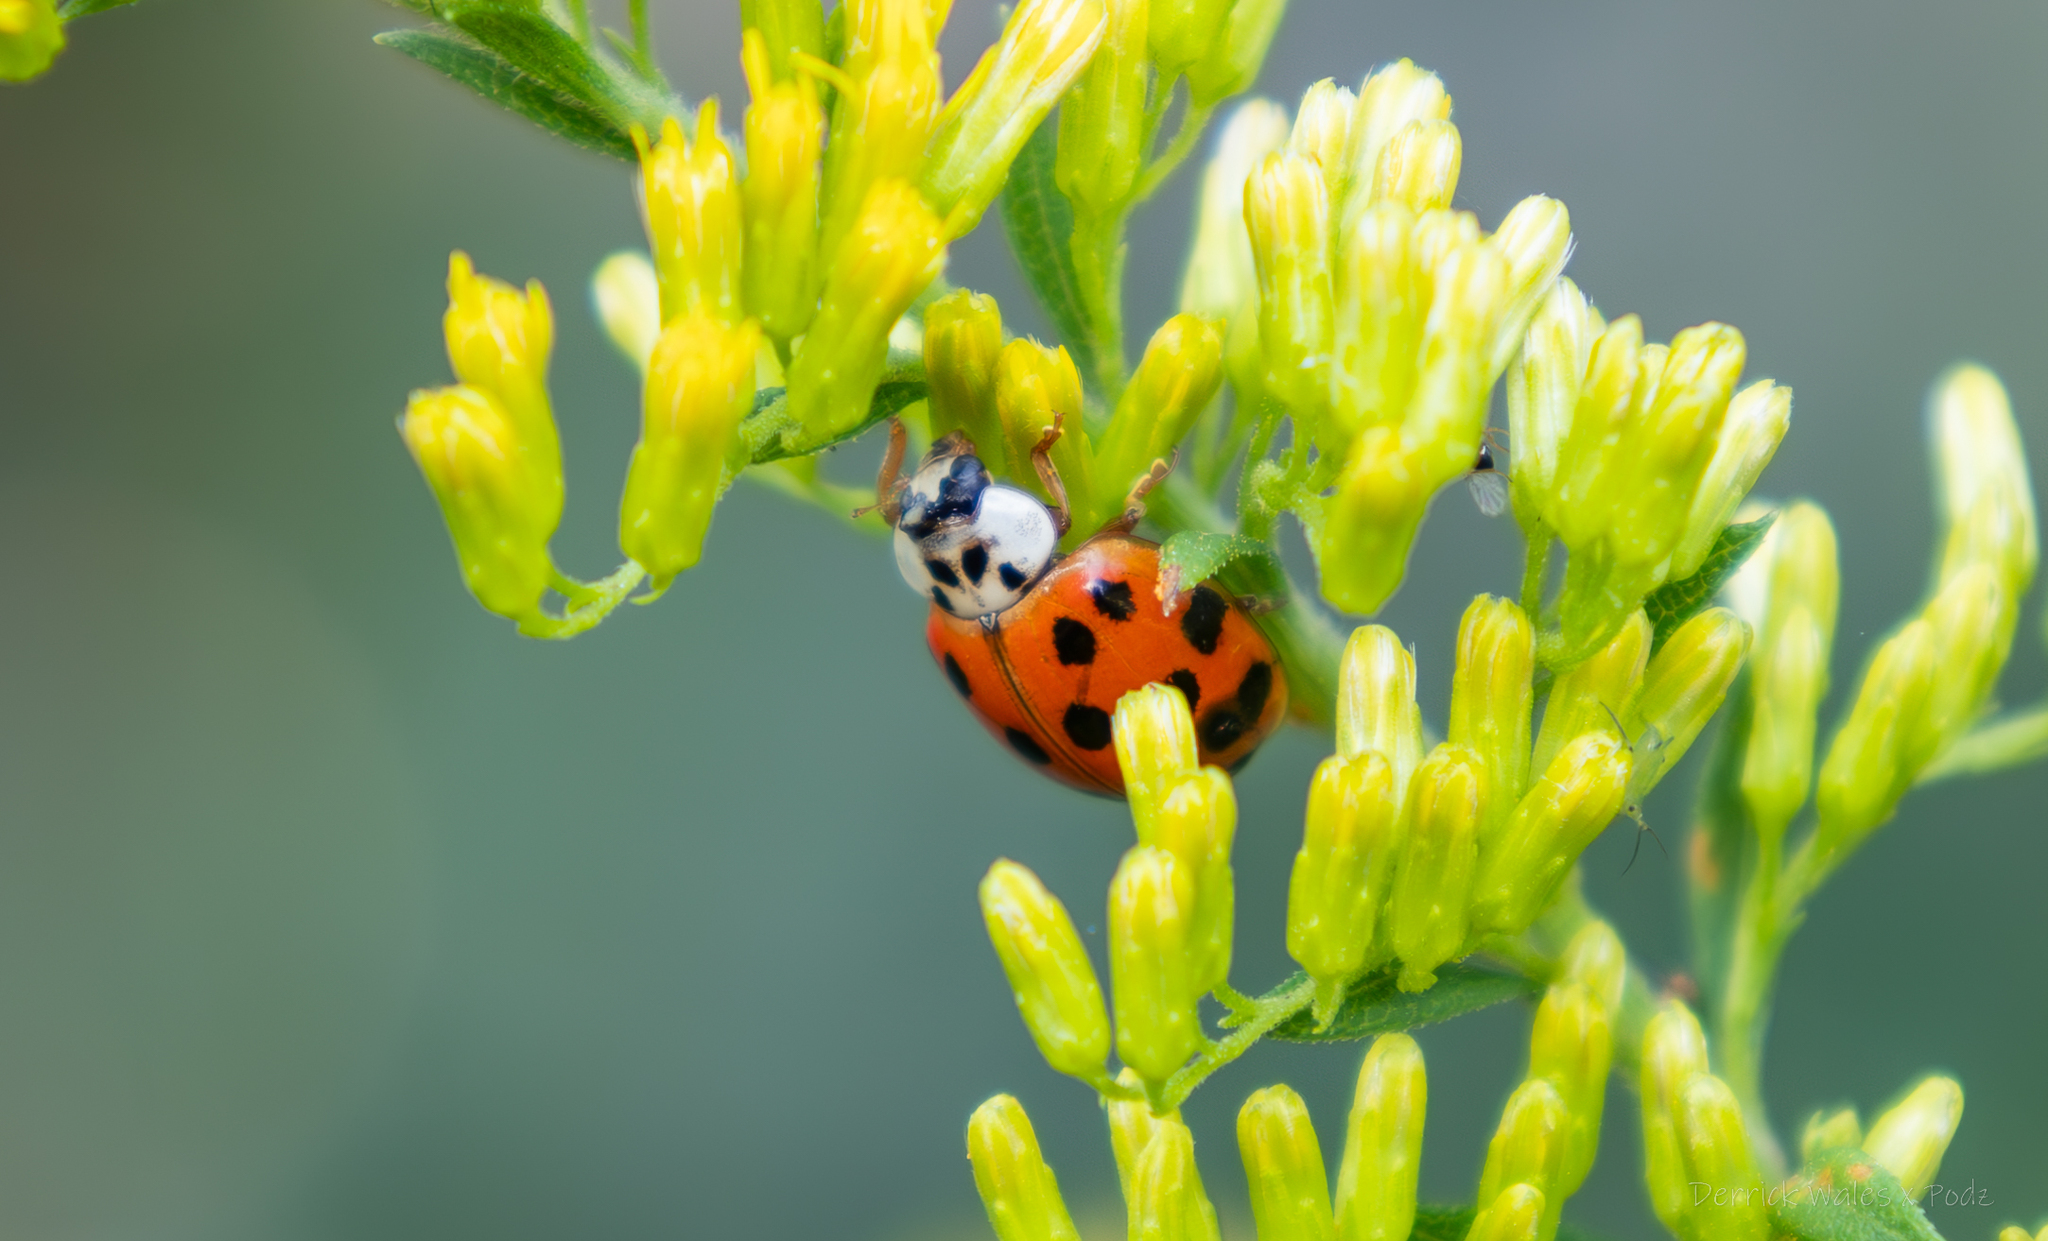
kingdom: Animalia
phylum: Arthropoda
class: Insecta
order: Coleoptera
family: Coccinellidae
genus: Harmonia
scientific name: Harmonia axyridis
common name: Harlequin ladybird
